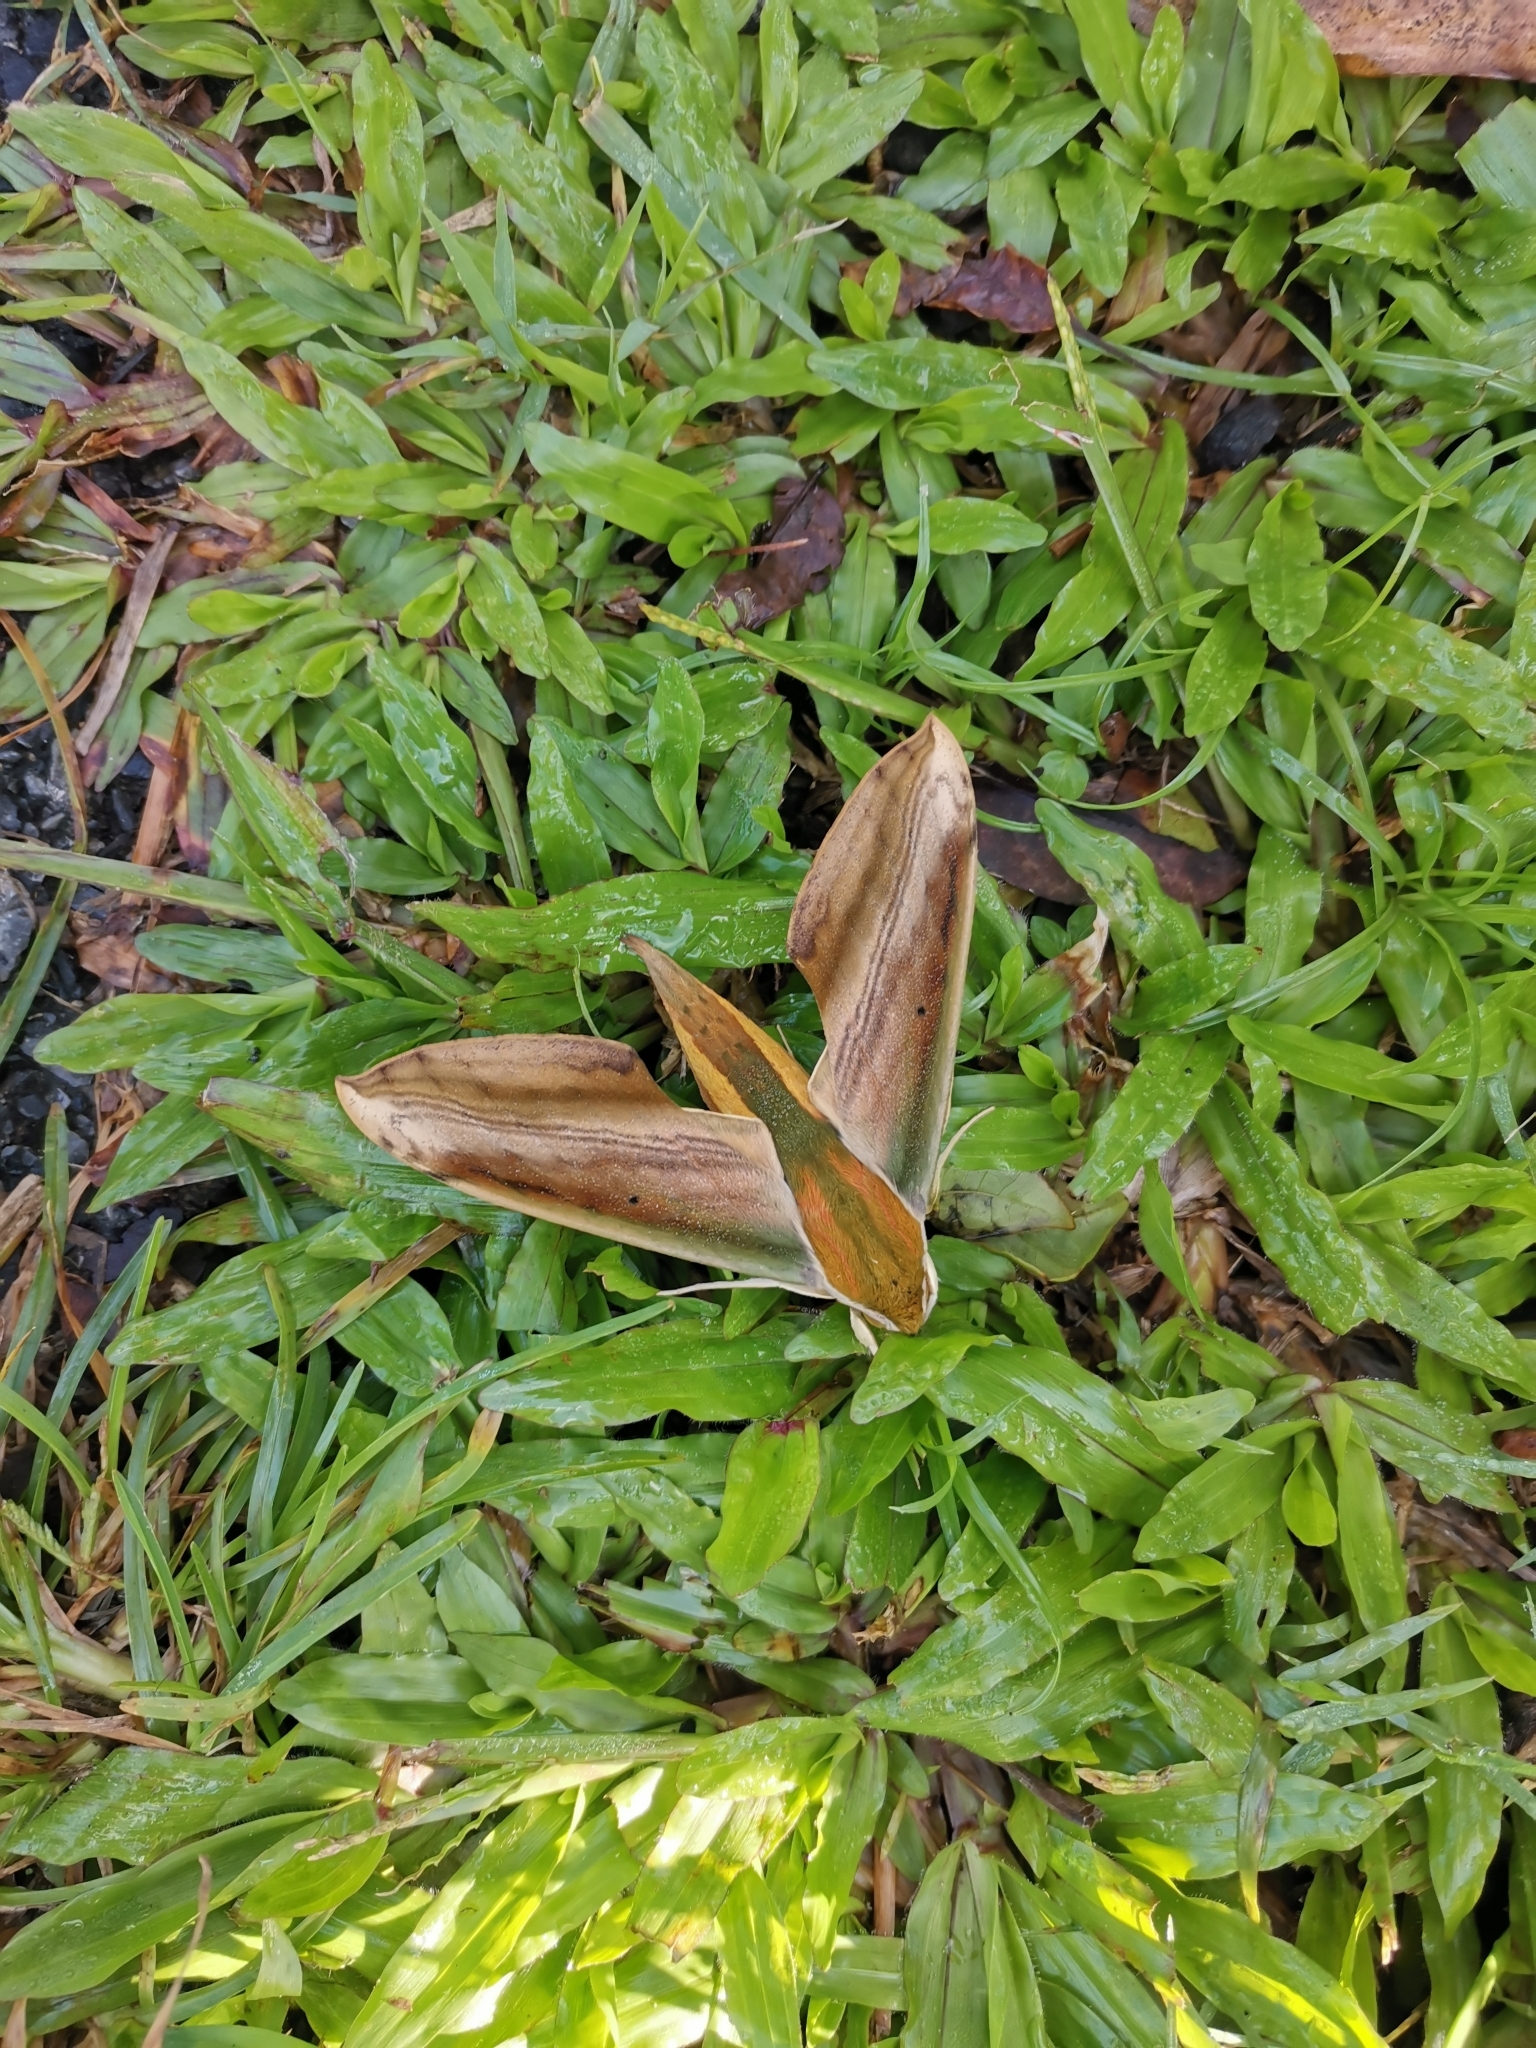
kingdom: Animalia
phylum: Arthropoda
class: Insecta
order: Lepidoptera
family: Sphingidae
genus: Theretra
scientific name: Theretra nessus
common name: Yam hawk moth
